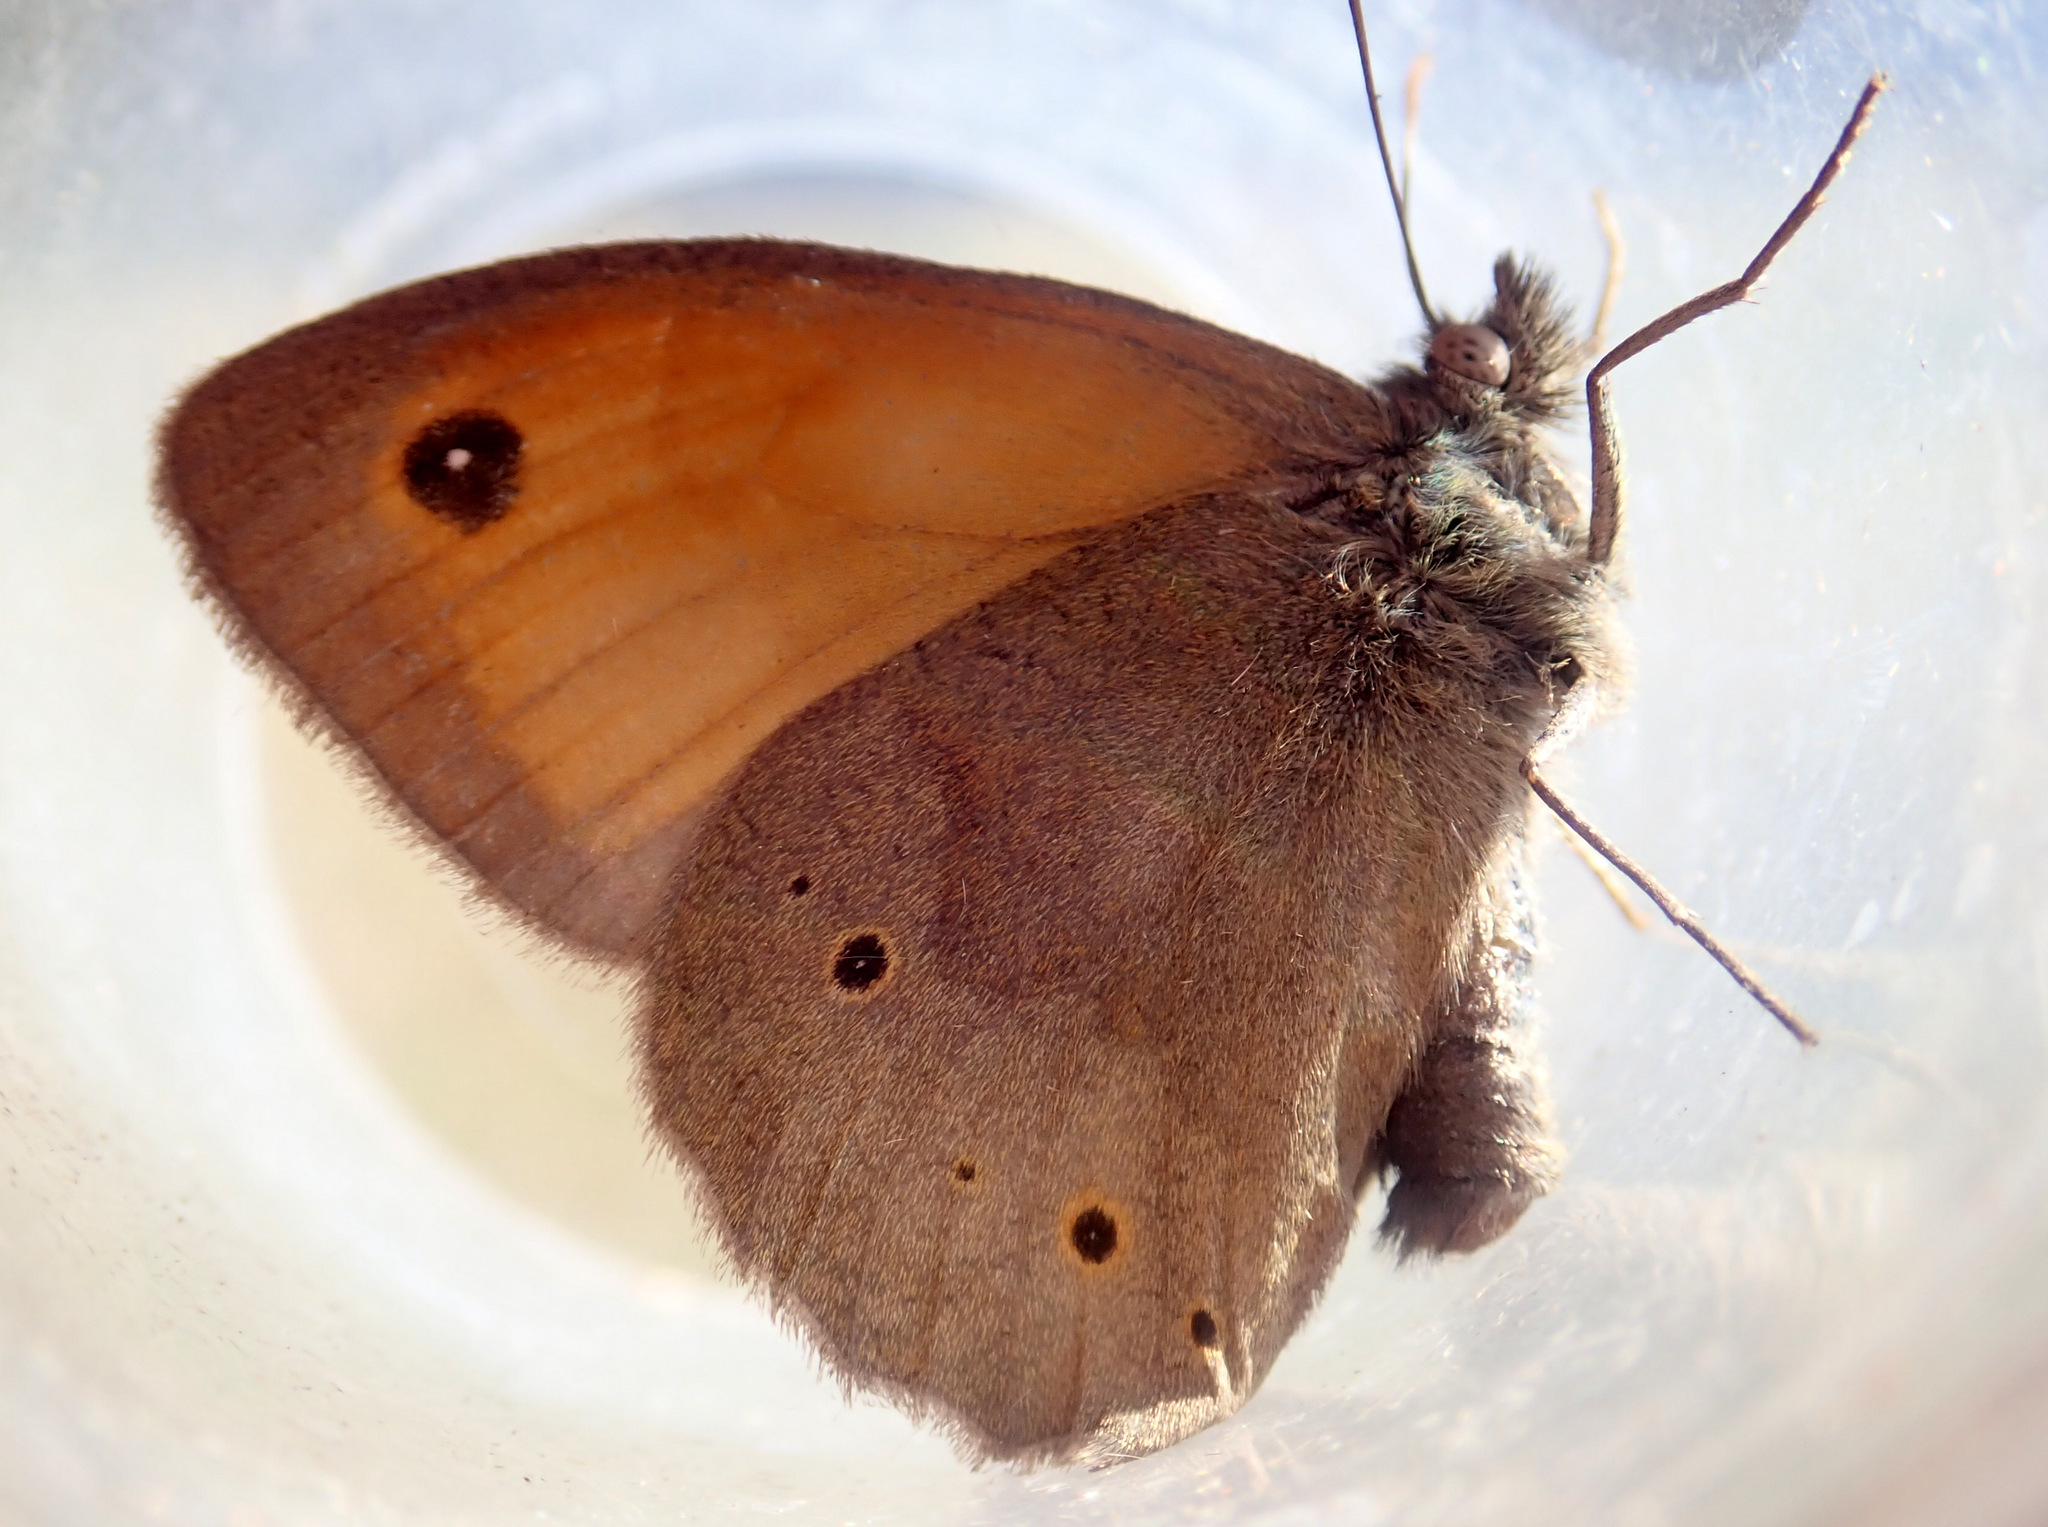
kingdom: Animalia
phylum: Arthropoda
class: Insecta
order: Lepidoptera
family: Nymphalidae
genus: Maniola
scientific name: Maniola jurtina
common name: Meadow brown
